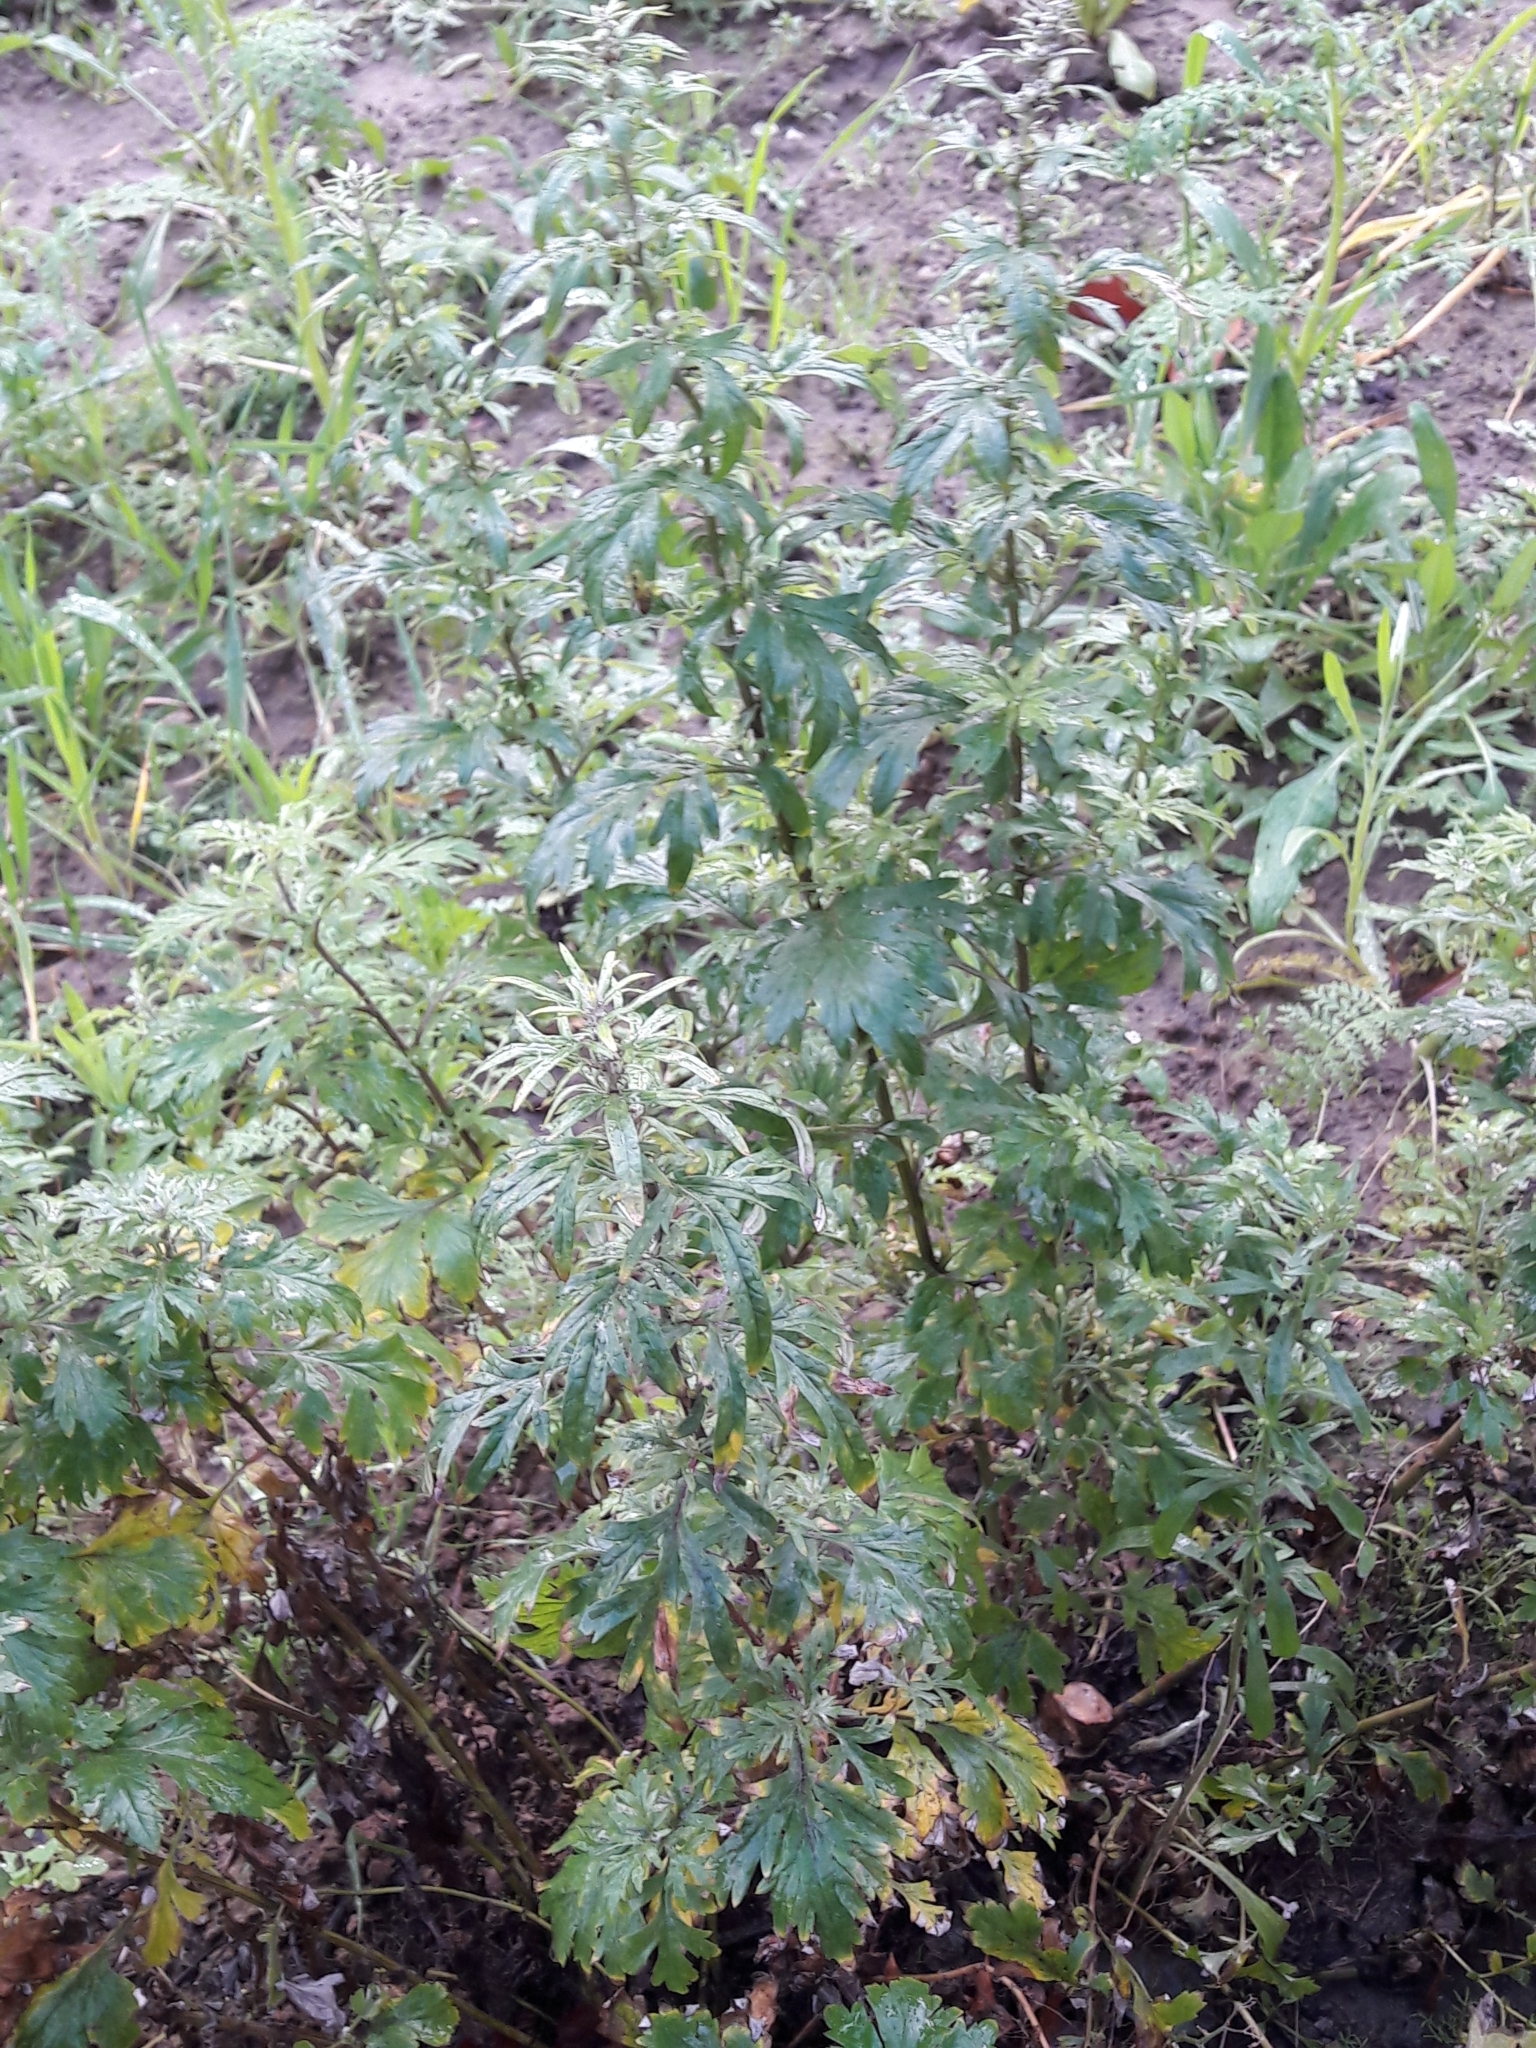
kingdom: Plantae
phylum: Tracheophyta
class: Magnoliopsida
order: Asterales
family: Asteraceae
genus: Artemisia
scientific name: Artemisia vulgaris
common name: Mugwort
